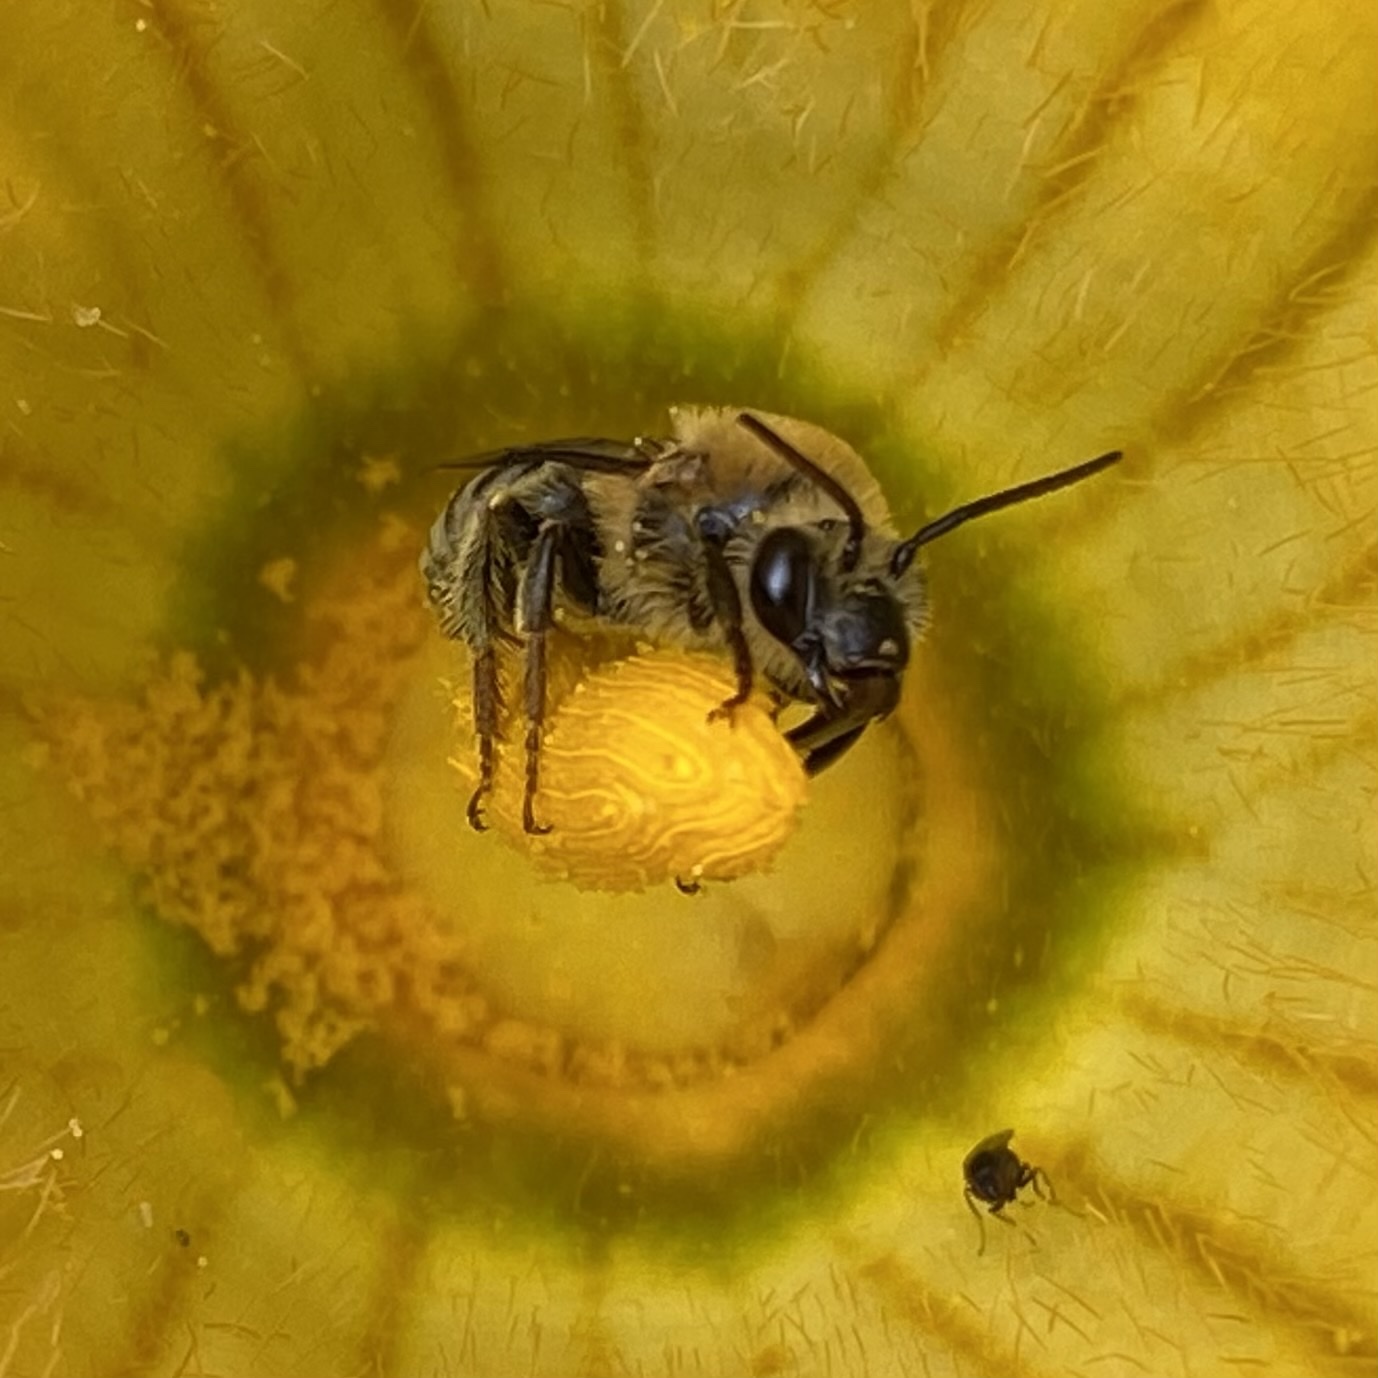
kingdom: Animalia
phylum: Arthropoda
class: Insecta
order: Hymenoptera
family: Apidae
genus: Peponapis
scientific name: Peponapis pruinosa
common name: Pruinose squash bee
